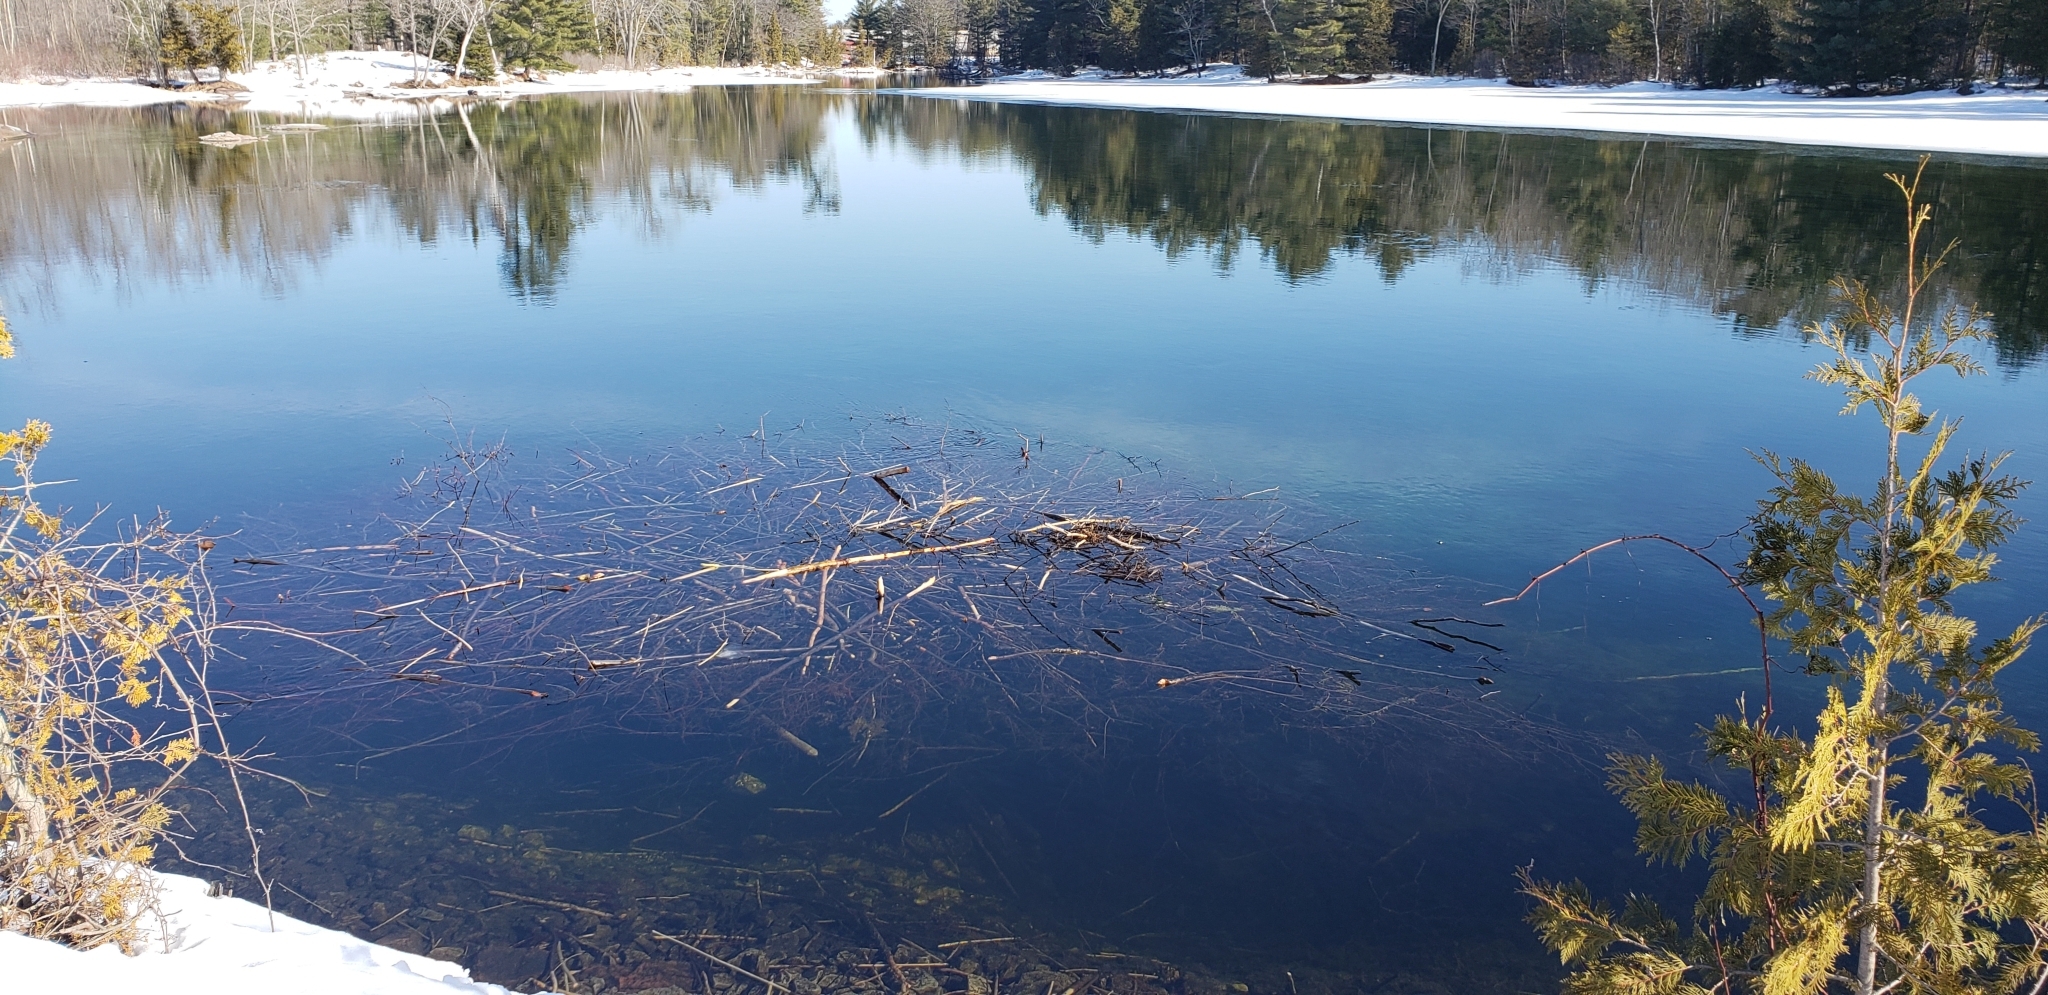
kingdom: Animalia
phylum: Chordata
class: Mammalia
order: Rodentia
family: Castoridae
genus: Castor
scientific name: Castor canadensis
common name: American beaver
